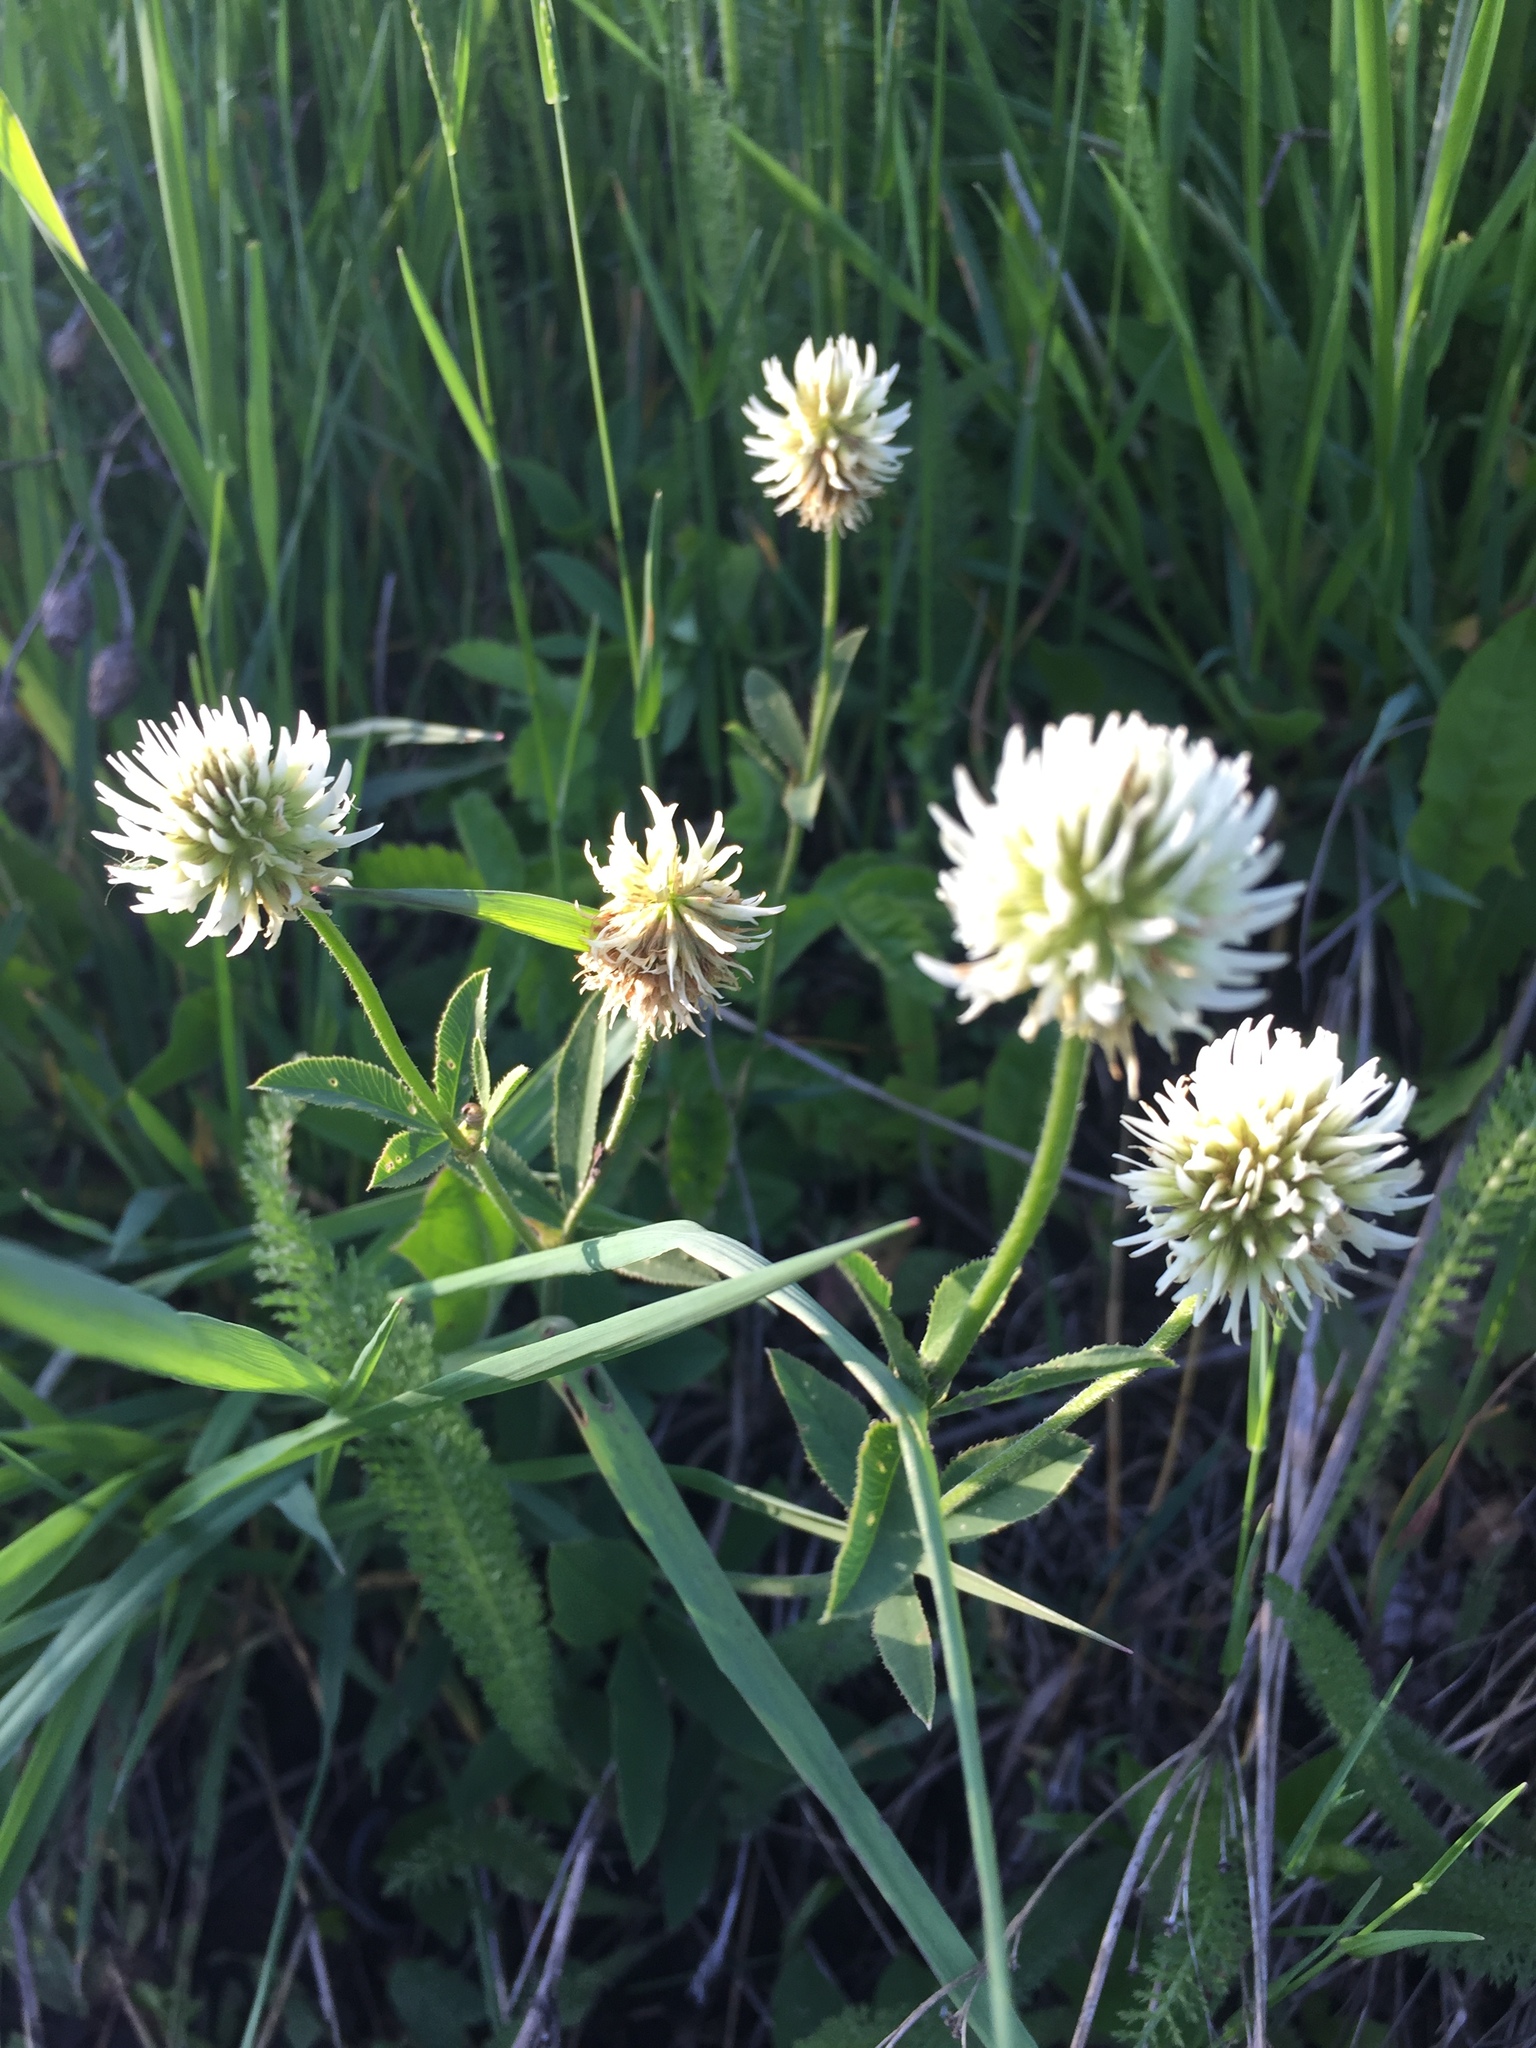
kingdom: Plantae
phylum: Tracheophyta
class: Magnoliopsida
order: Fabales
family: Fabaceae
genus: Trifolium
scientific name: Trifolium montanum
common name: Mountain clover
